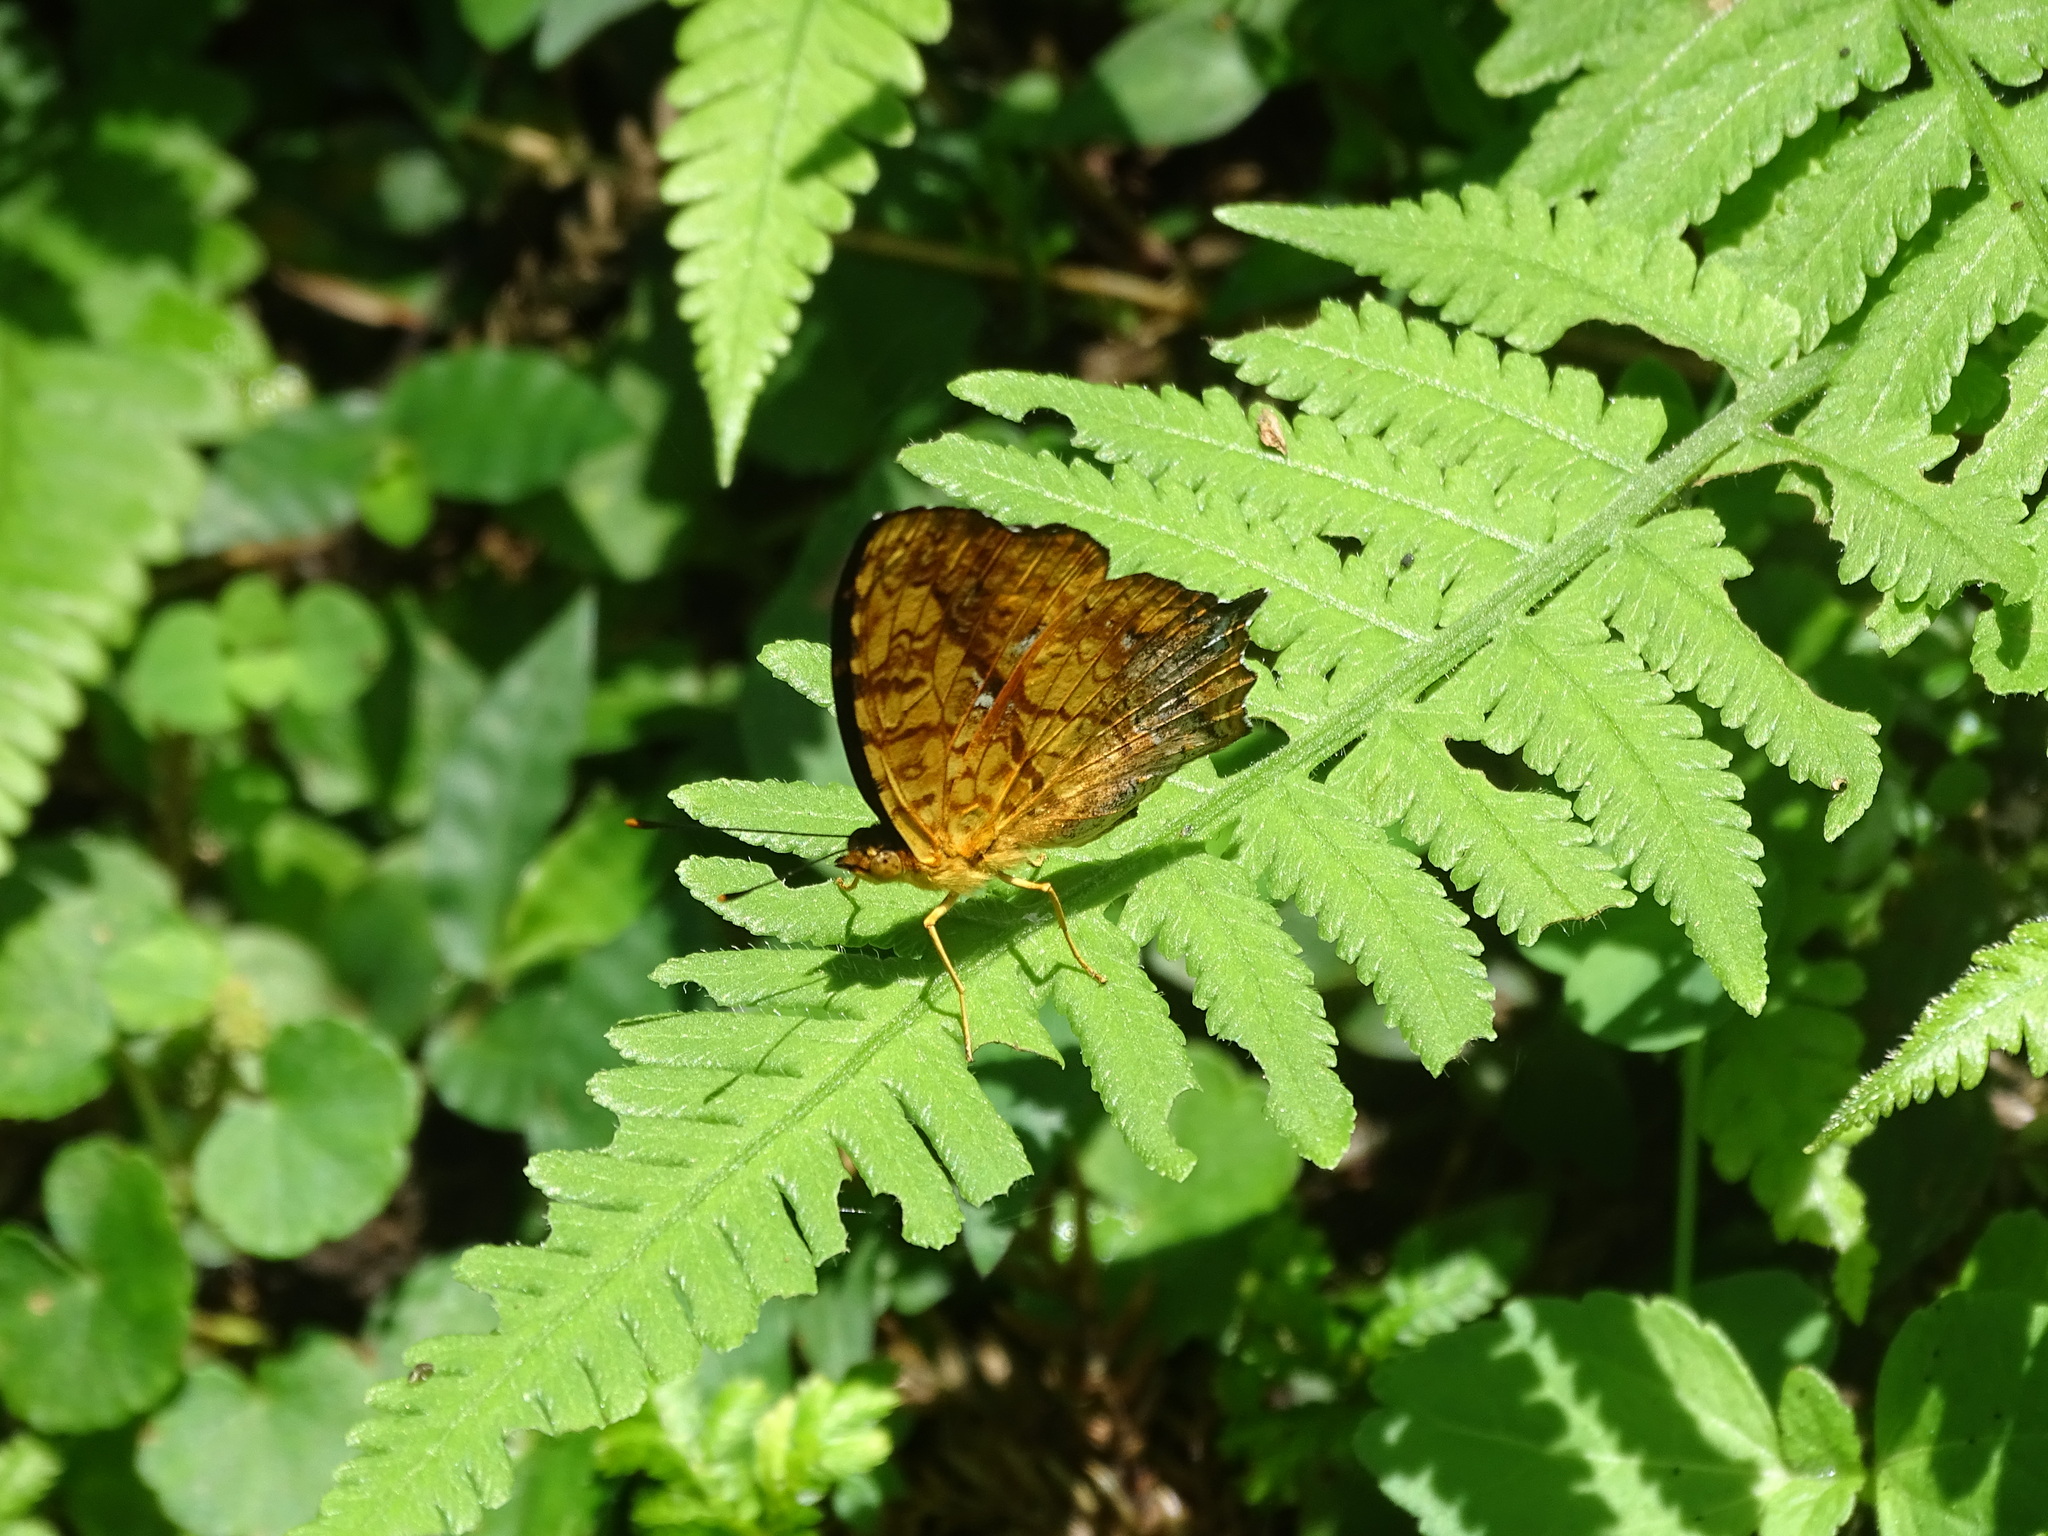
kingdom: Animalia
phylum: Arthropoda
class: Insecta
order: Lepidoptera
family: Nymphalidae
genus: Symbrenthia
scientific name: Symbrenthia hypselis
